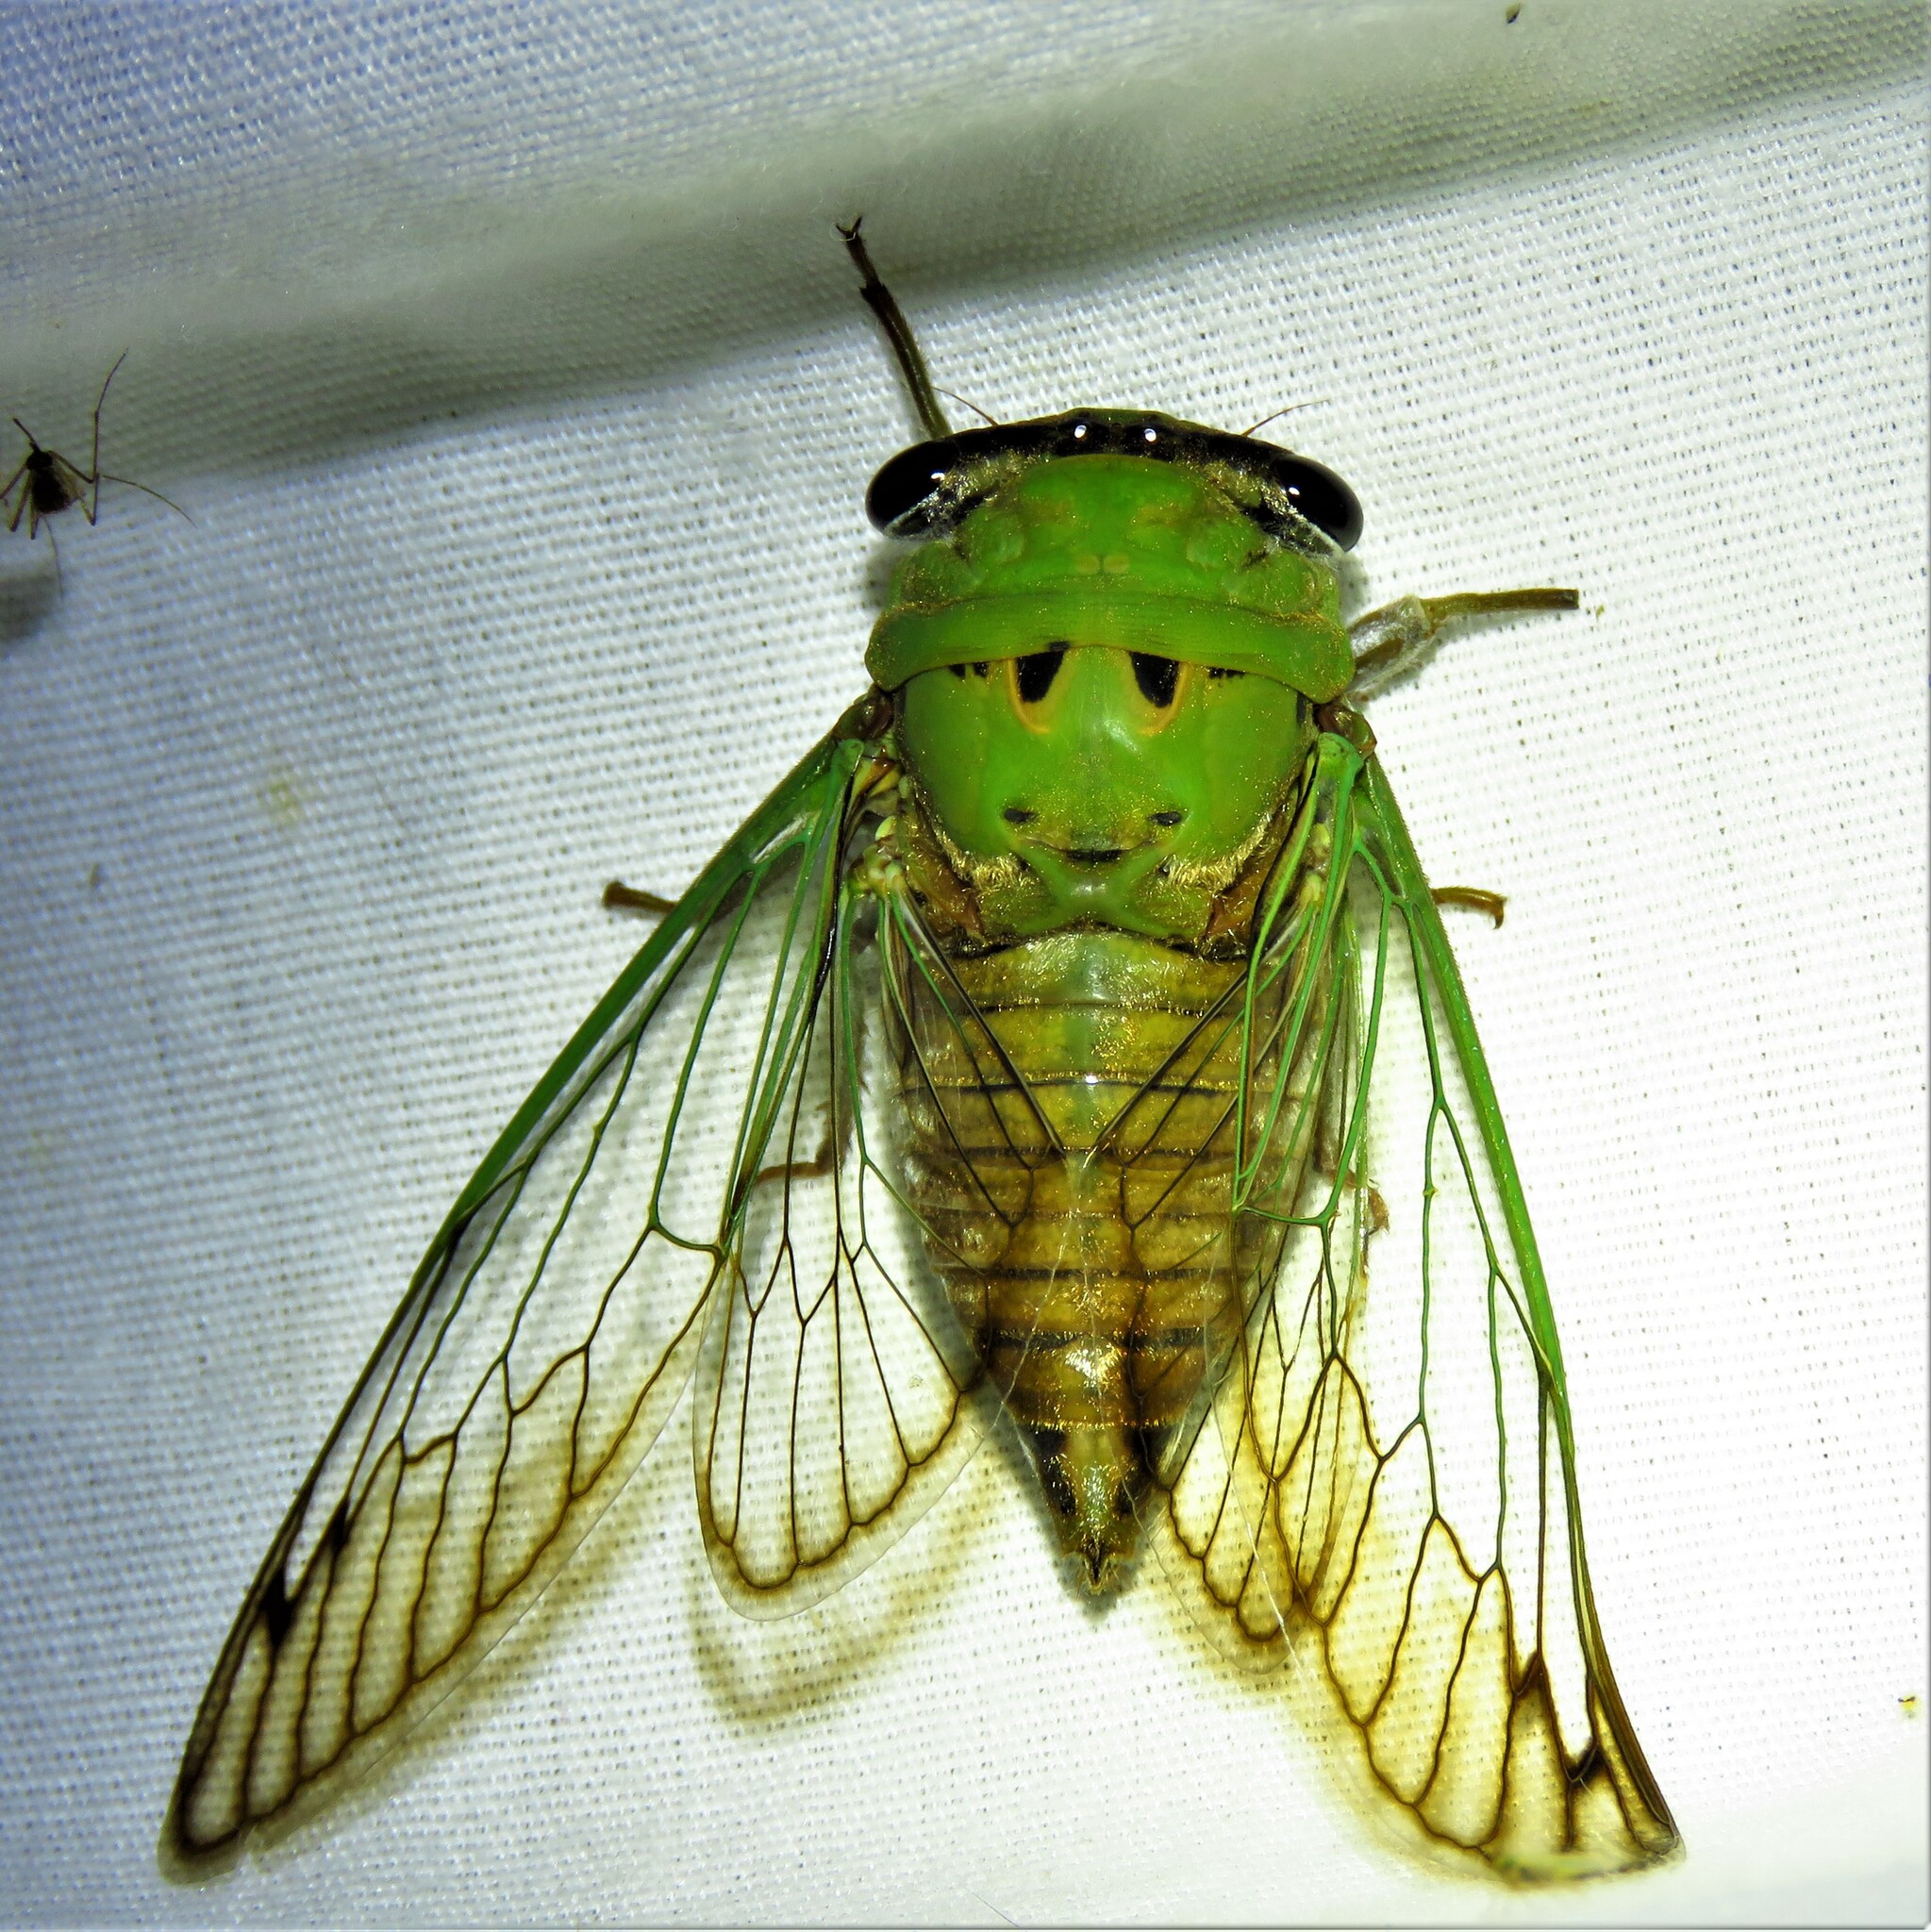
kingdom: Animalia
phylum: Arthropoda
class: Insecta
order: Hemiptera
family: Cicadidae
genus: Neotibicen
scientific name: Neotibicen superbus
